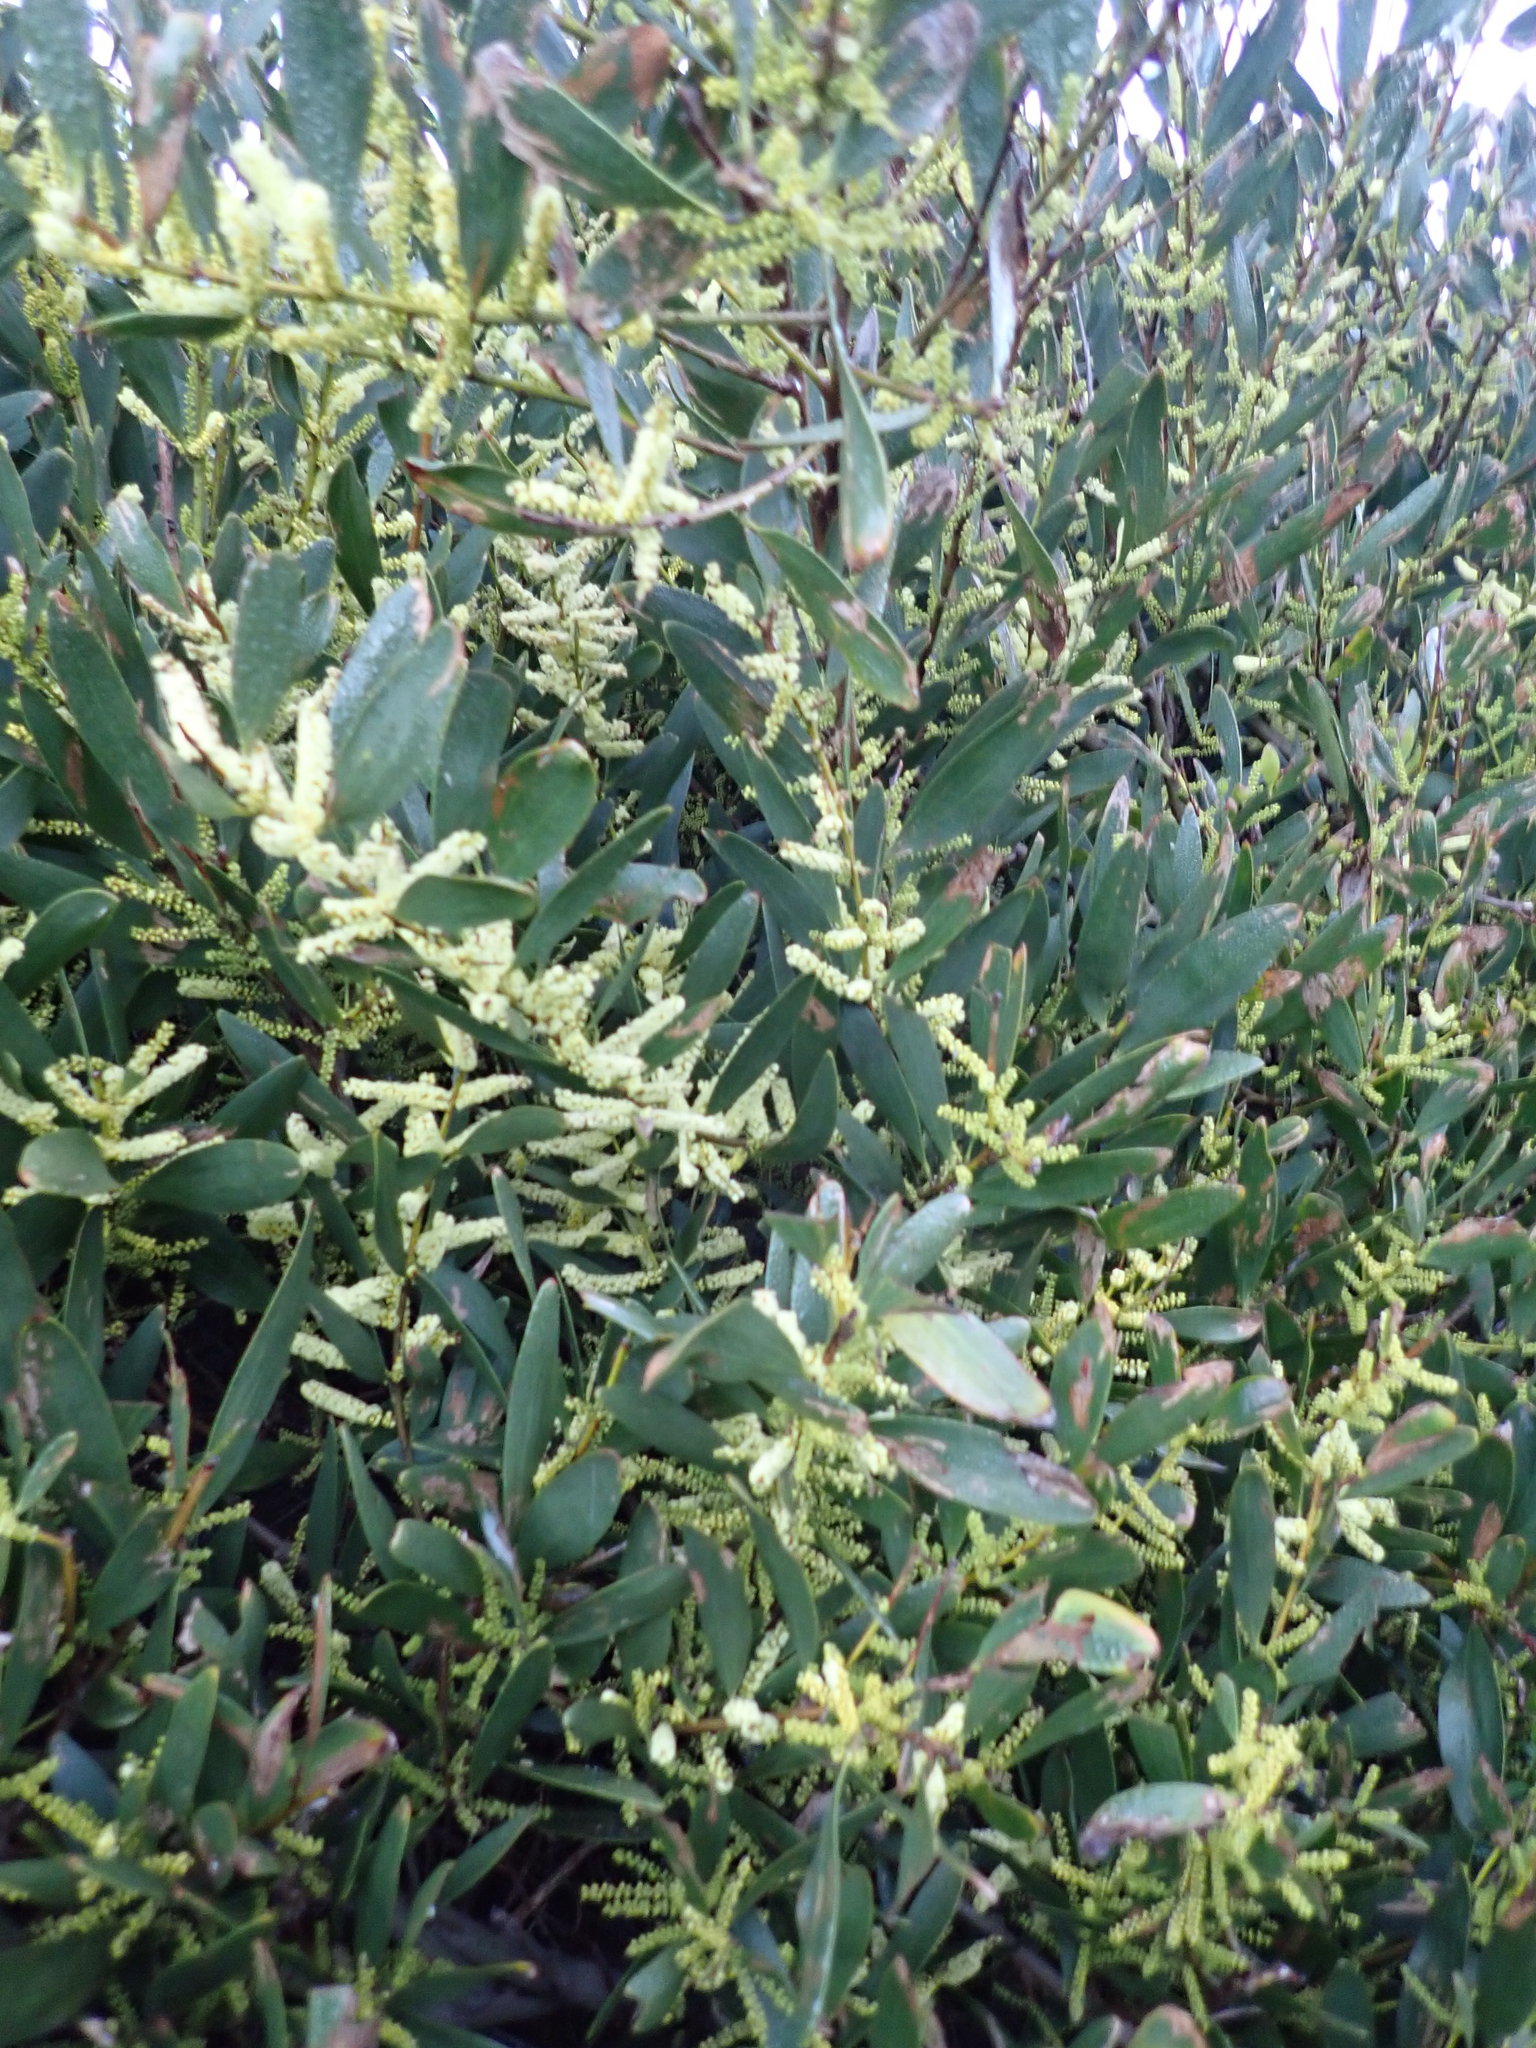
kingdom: Plantae
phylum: Tracheophyta
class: Magnoliopsida
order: Fabales
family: Fabaceae
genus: Acacia
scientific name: Acacia longifolia
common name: Sydney golden wattle
